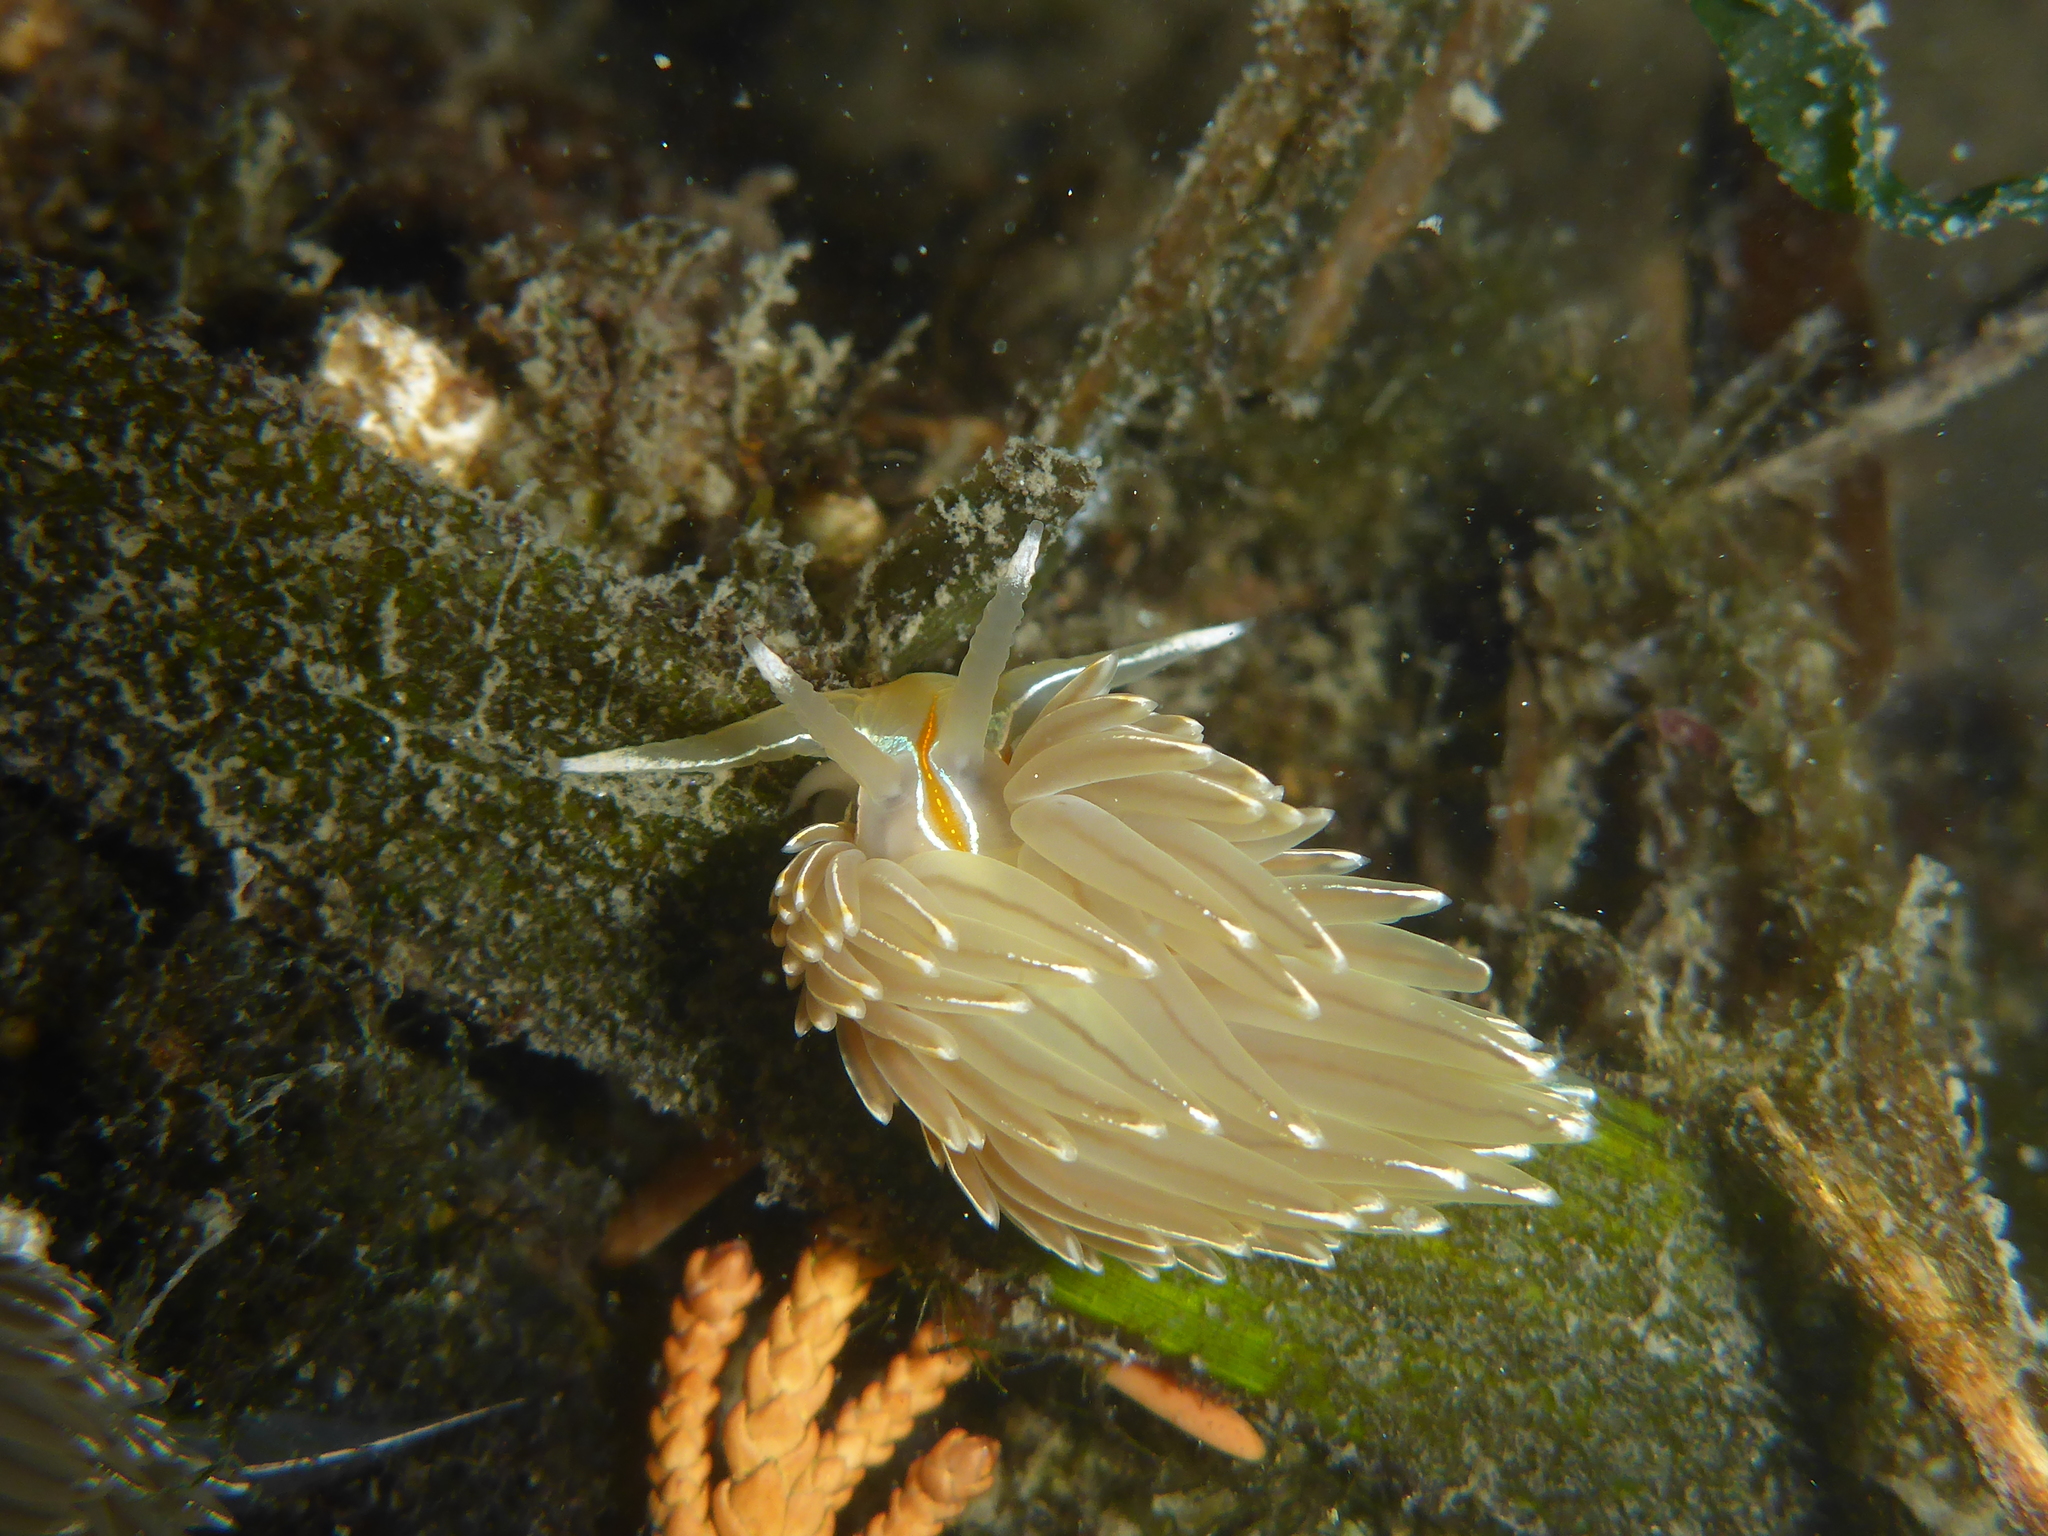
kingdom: Animalia
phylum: Mollusca
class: Gastropoda
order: Nudibranchia
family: Myrrhinidae
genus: Hermissenda
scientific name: Hermissenda crassicornis
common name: Hermissenda
